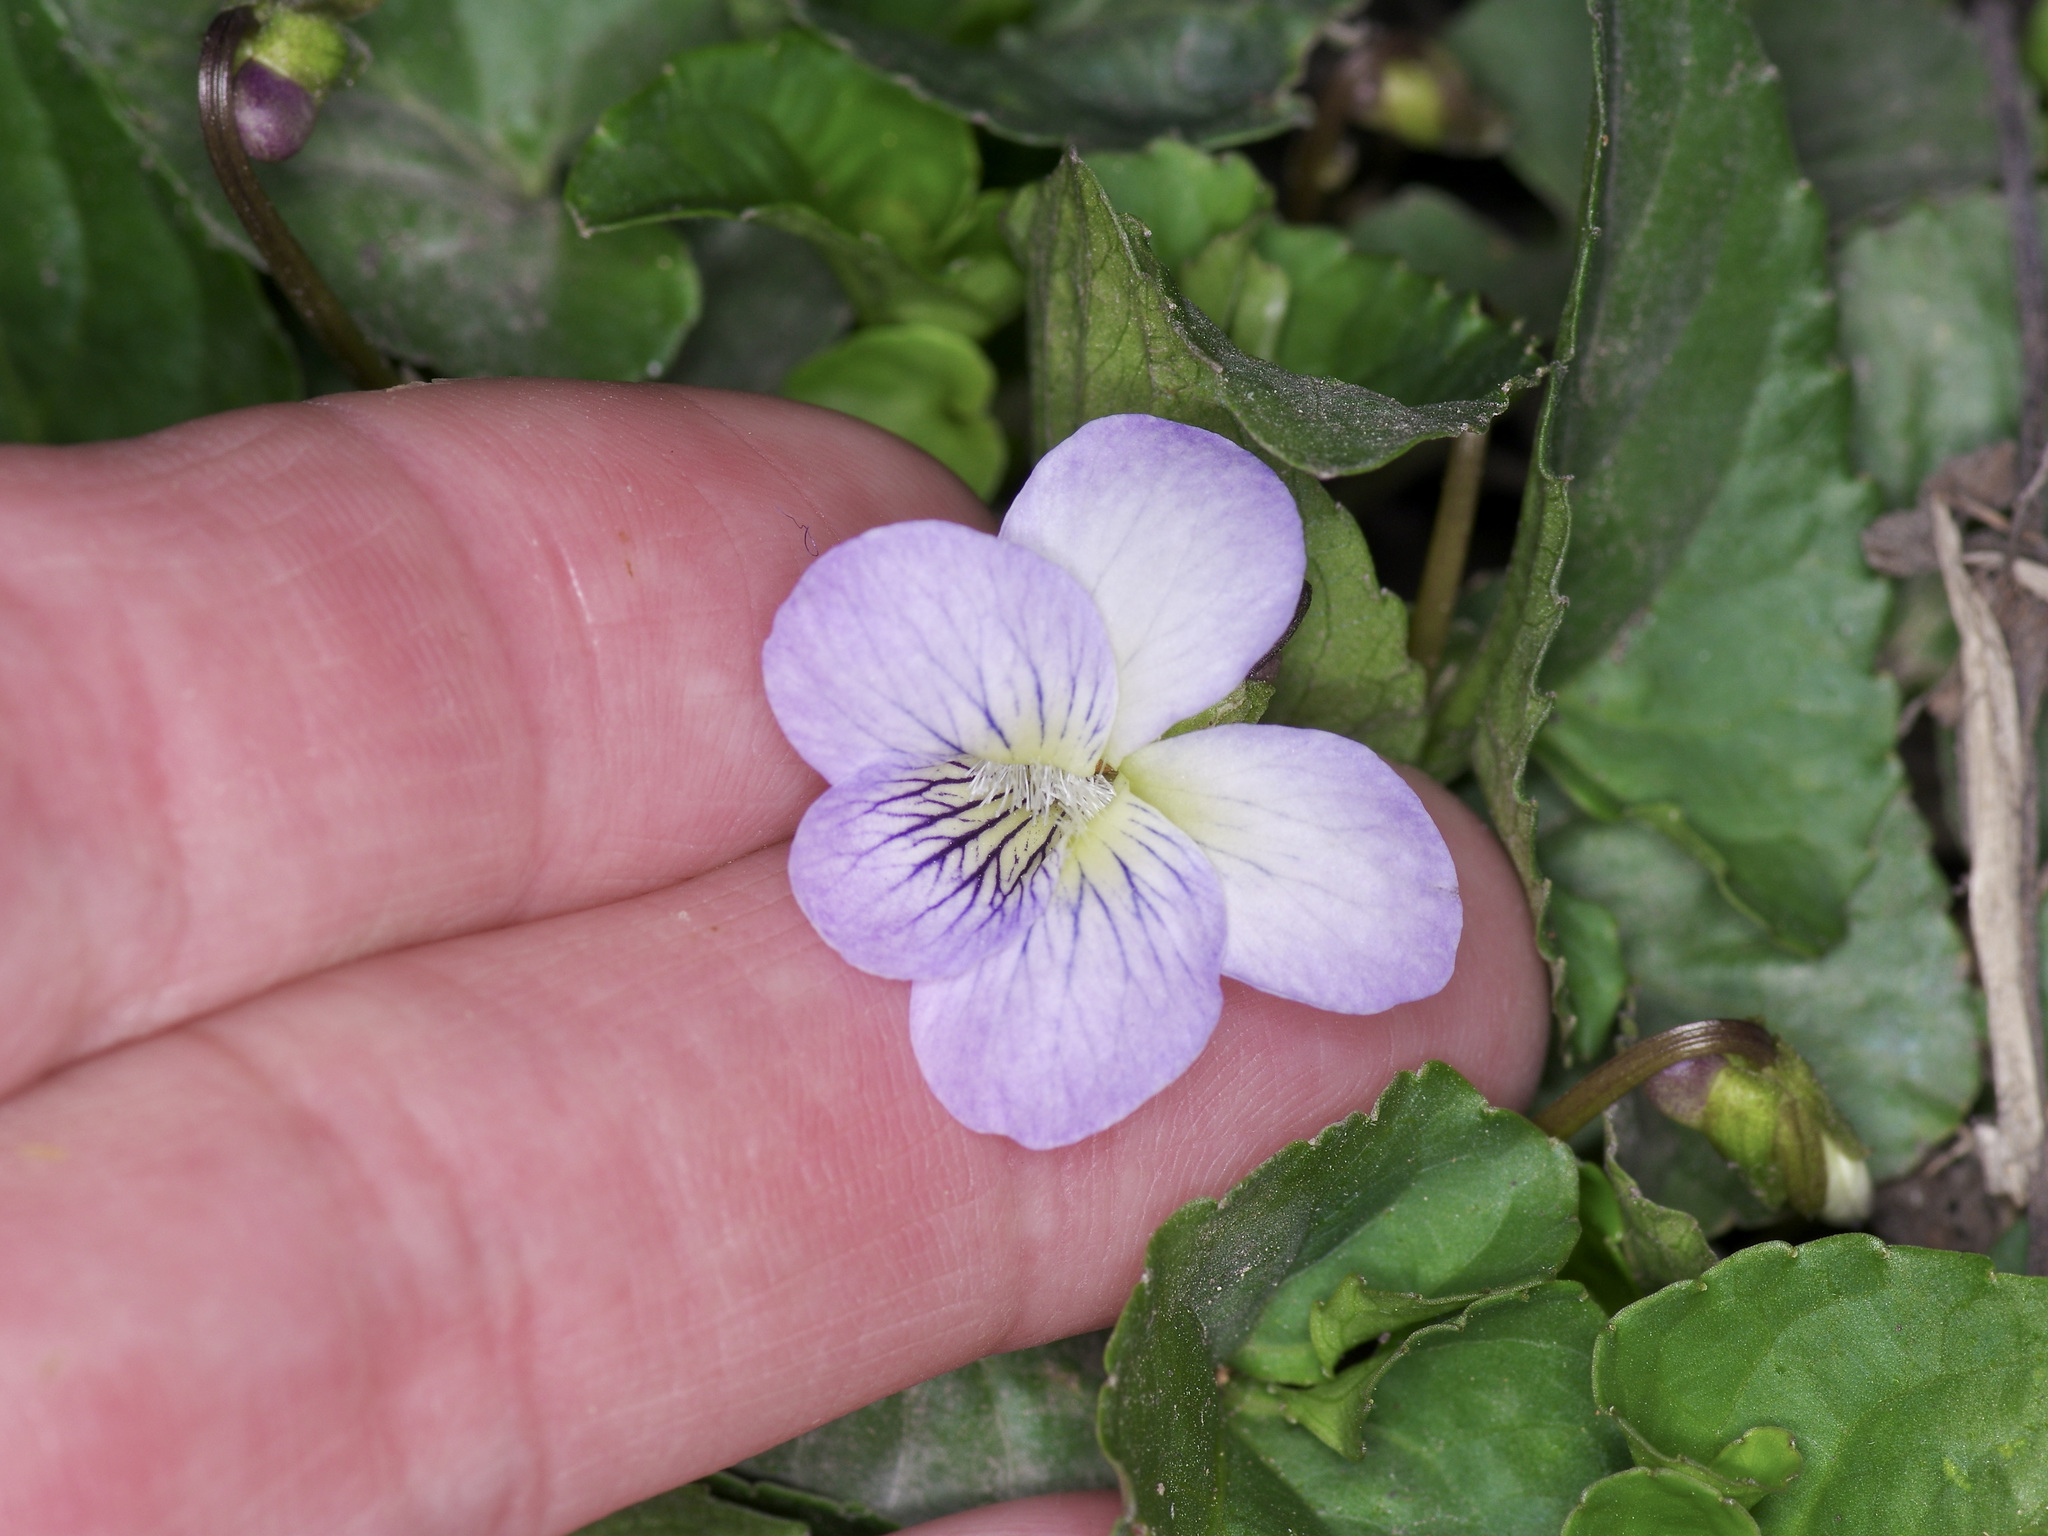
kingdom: Plantae
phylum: Tracheophyta
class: Magnoliopsida
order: Malpighiales
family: Violaceae
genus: Viola
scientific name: Viola missouriensis
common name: Missouri violet
